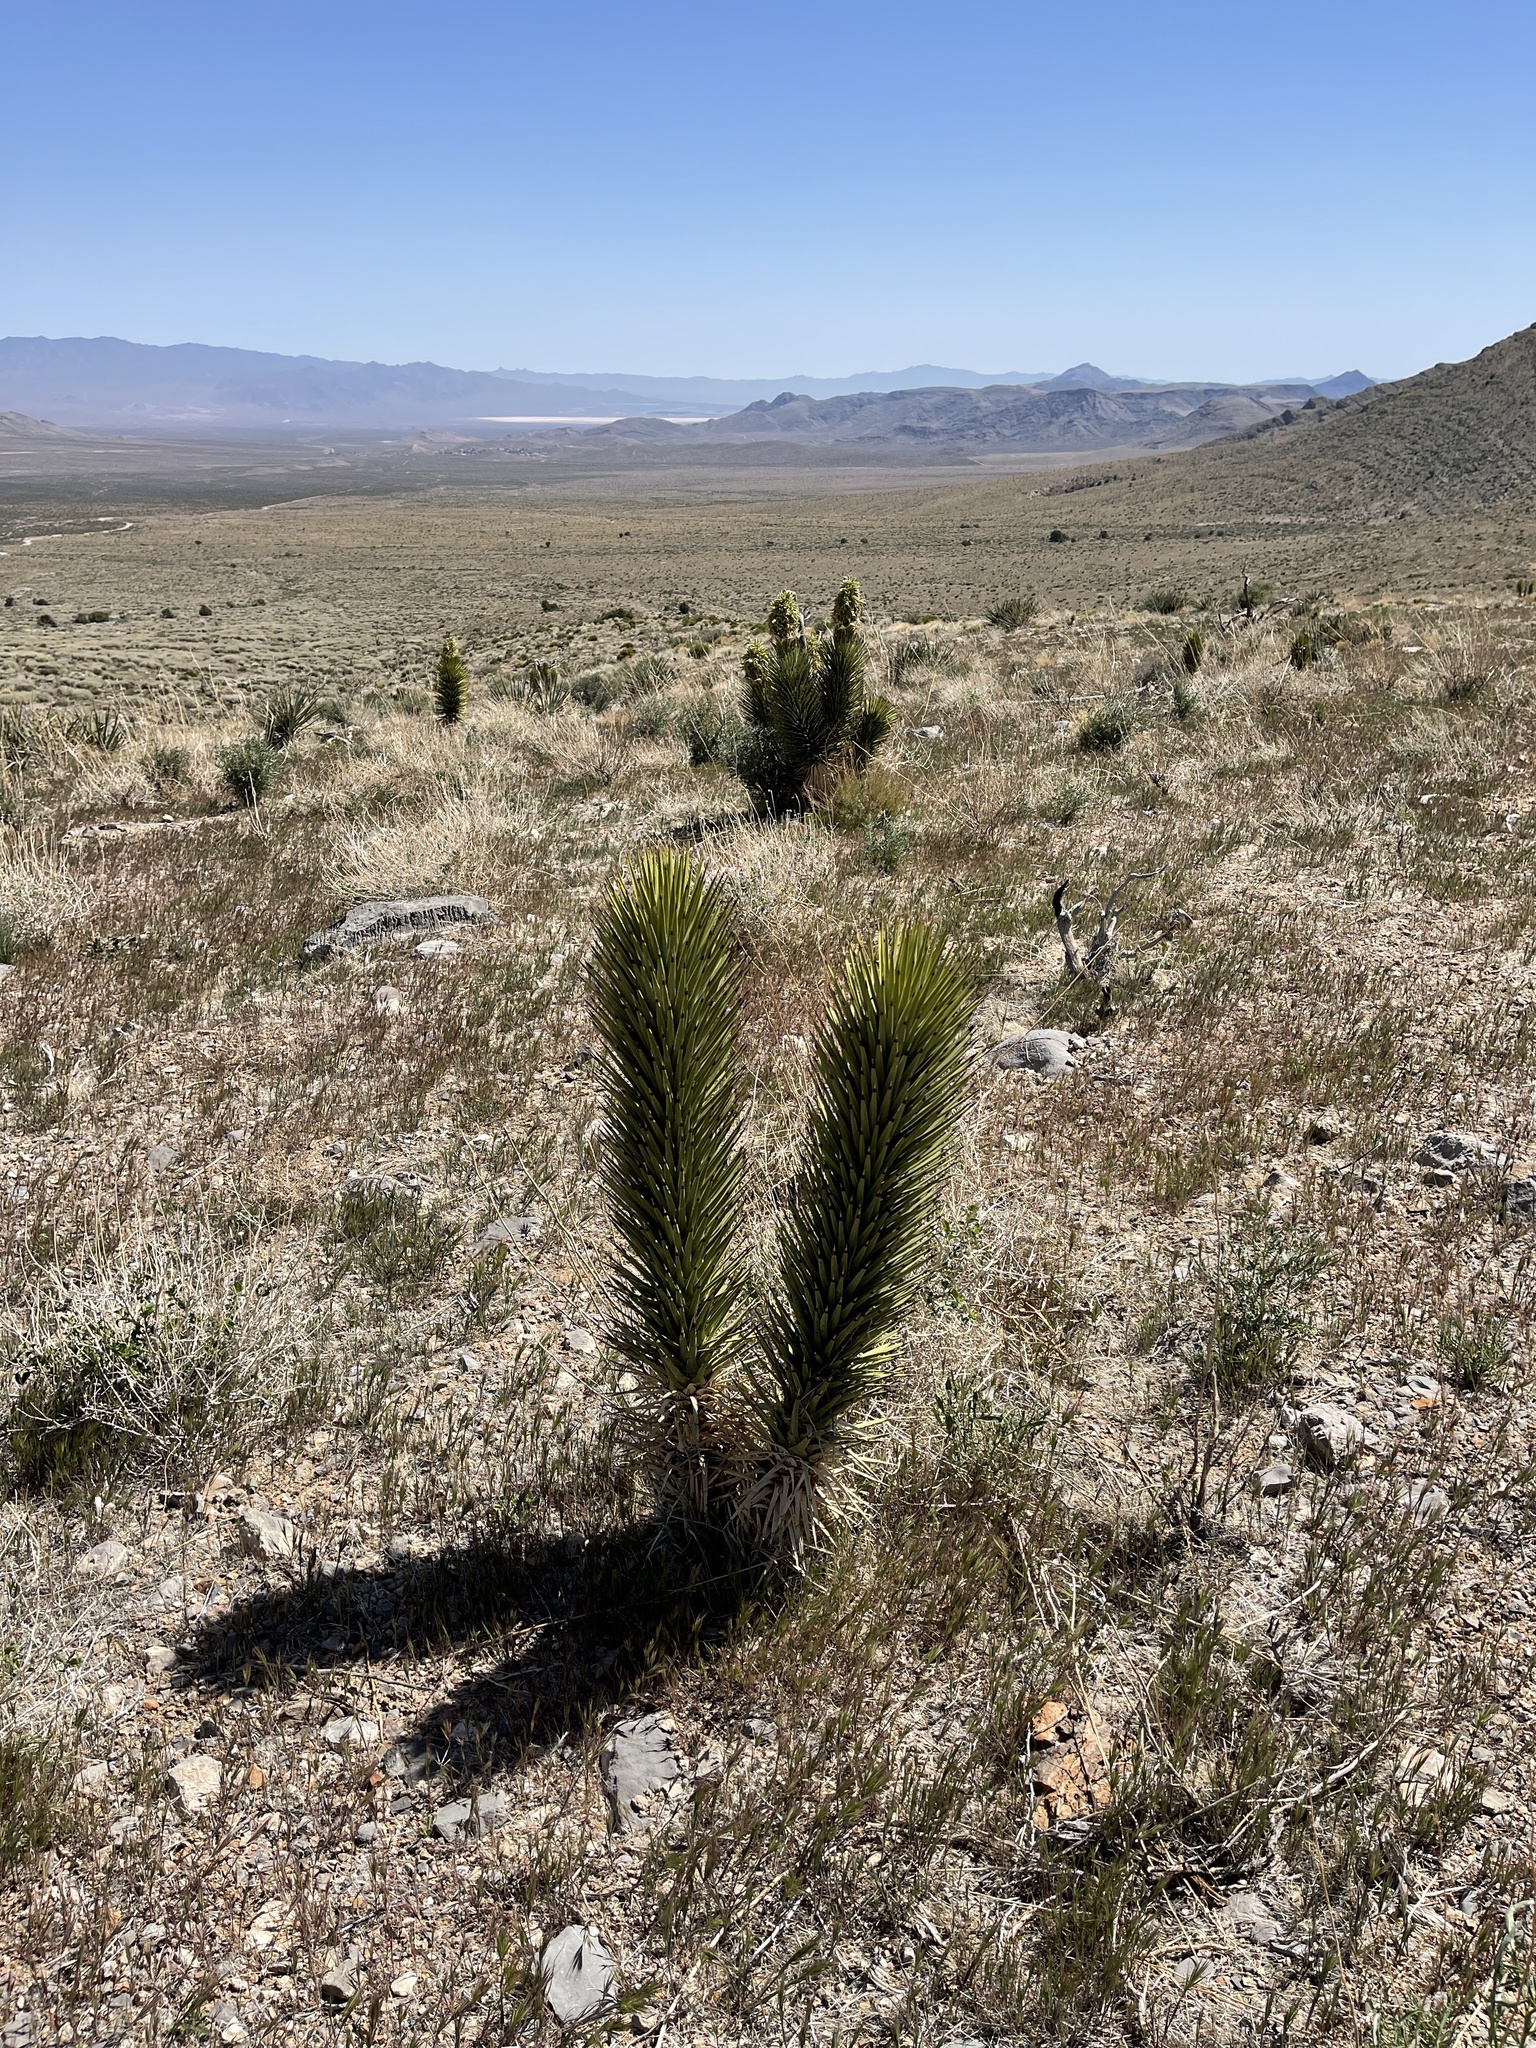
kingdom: Plantae
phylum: Tracheophyta
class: Liliopsida
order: Asparagales
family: Asparagaceae
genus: Yucca
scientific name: Yucca brevifolia
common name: Joshua tree
